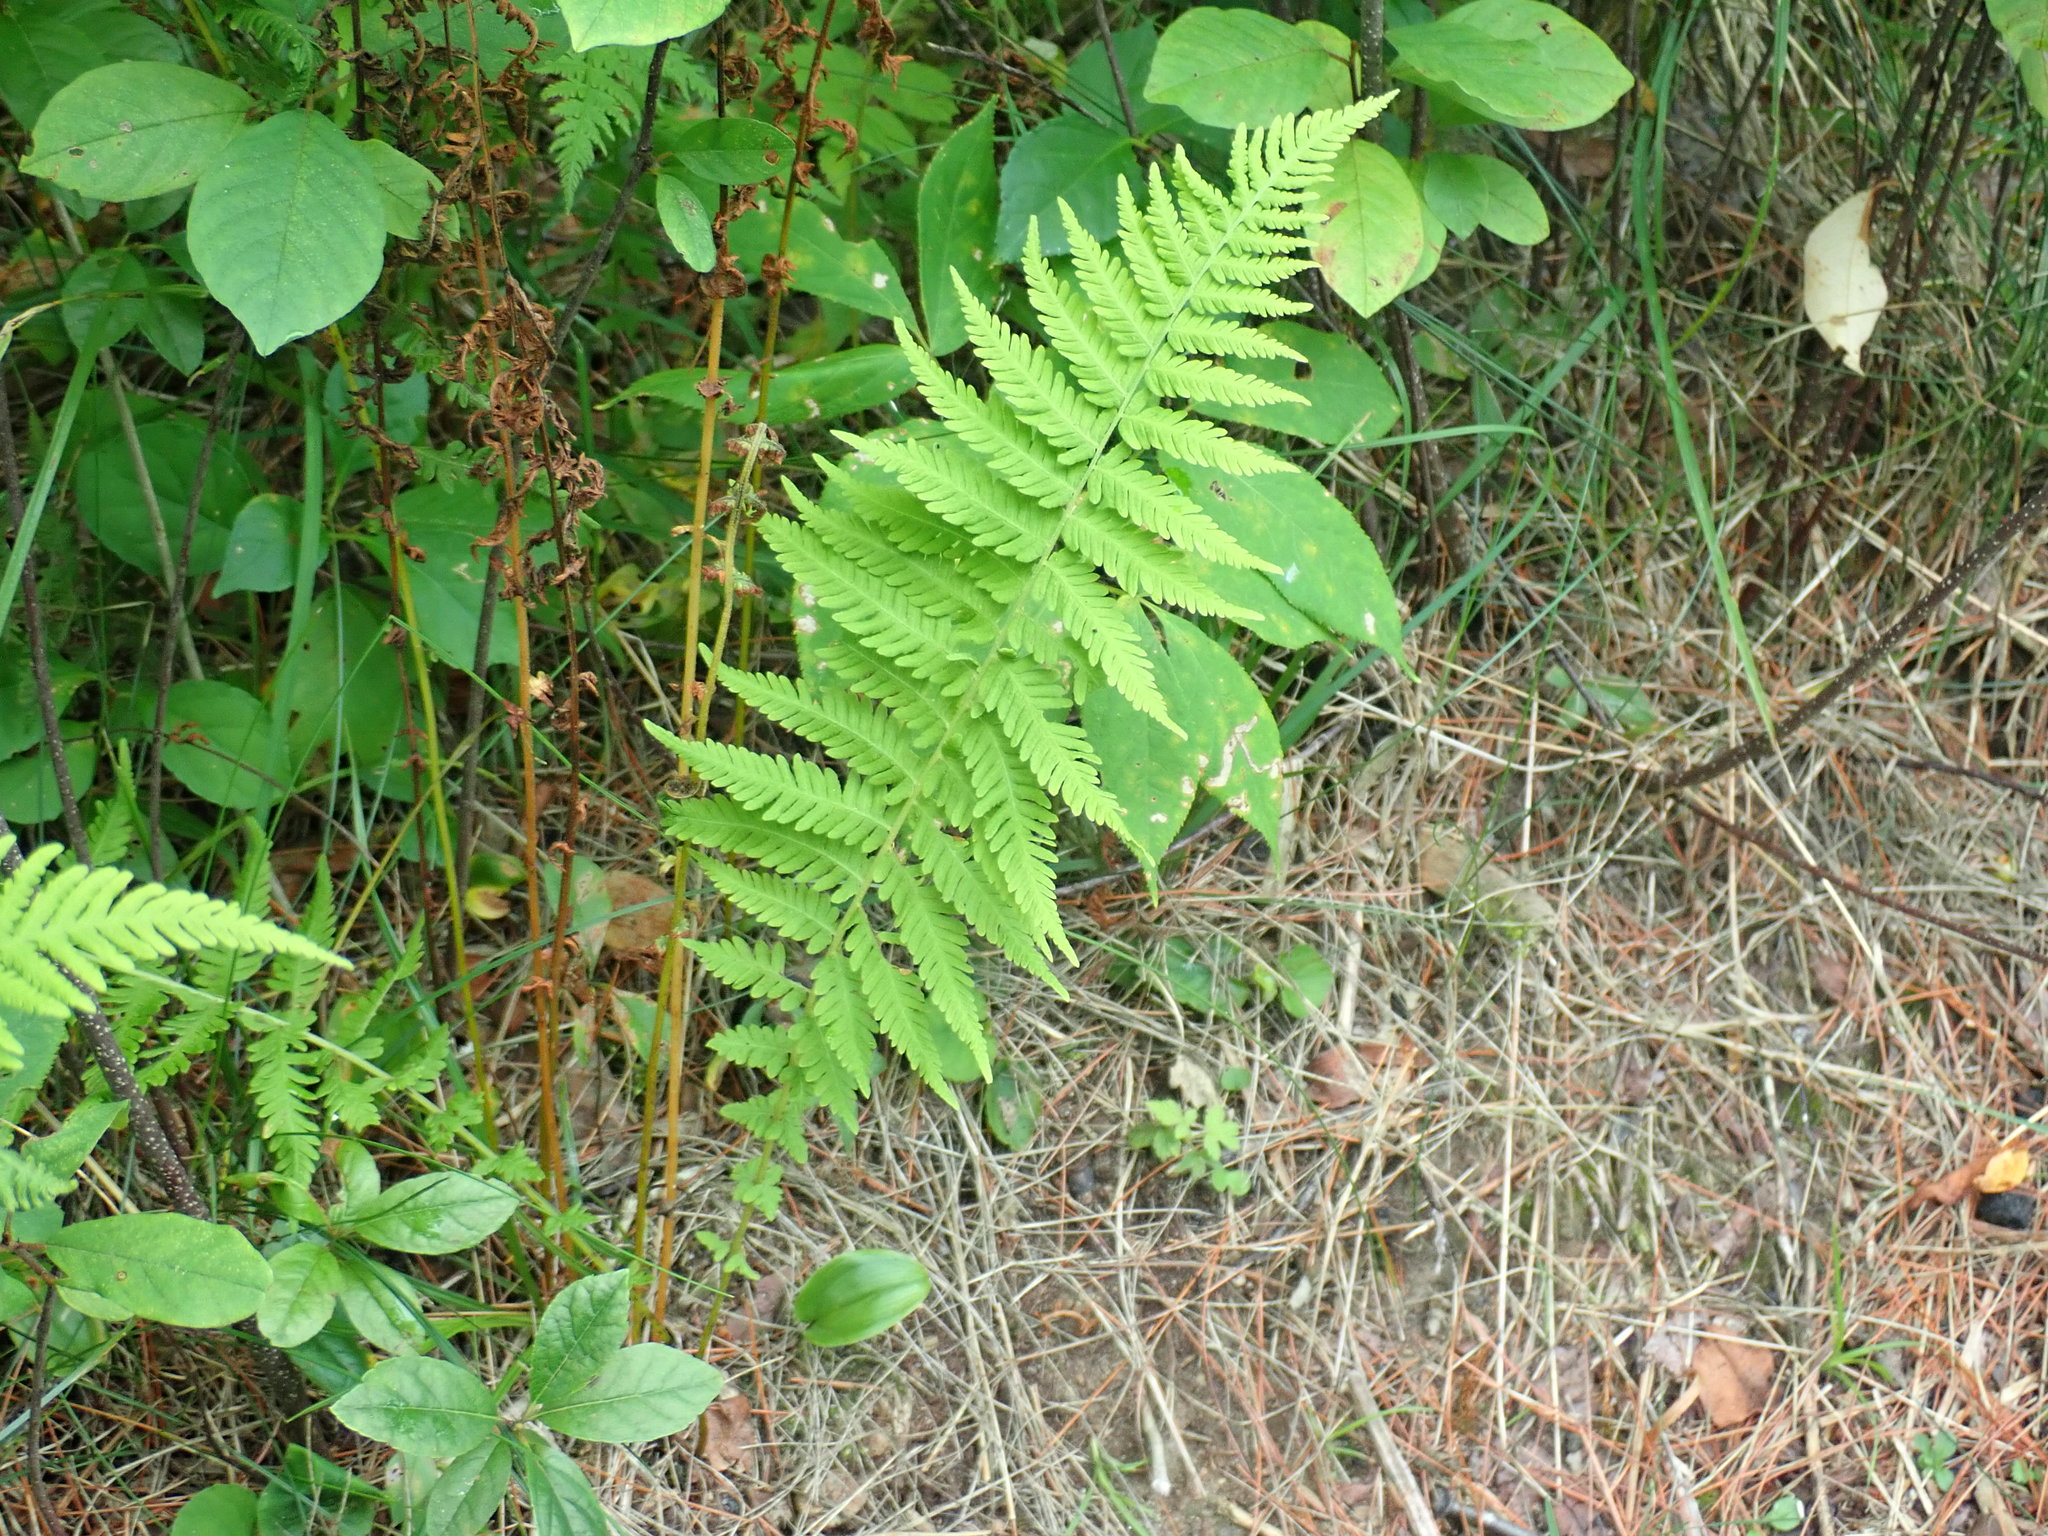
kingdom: Plantae
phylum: Tracheophyta
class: Polypodiopsida
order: Polypodiales
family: Thelypteridaceae
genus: Amauropelta
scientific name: Amauropelta noveboracensis
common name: New york fern
